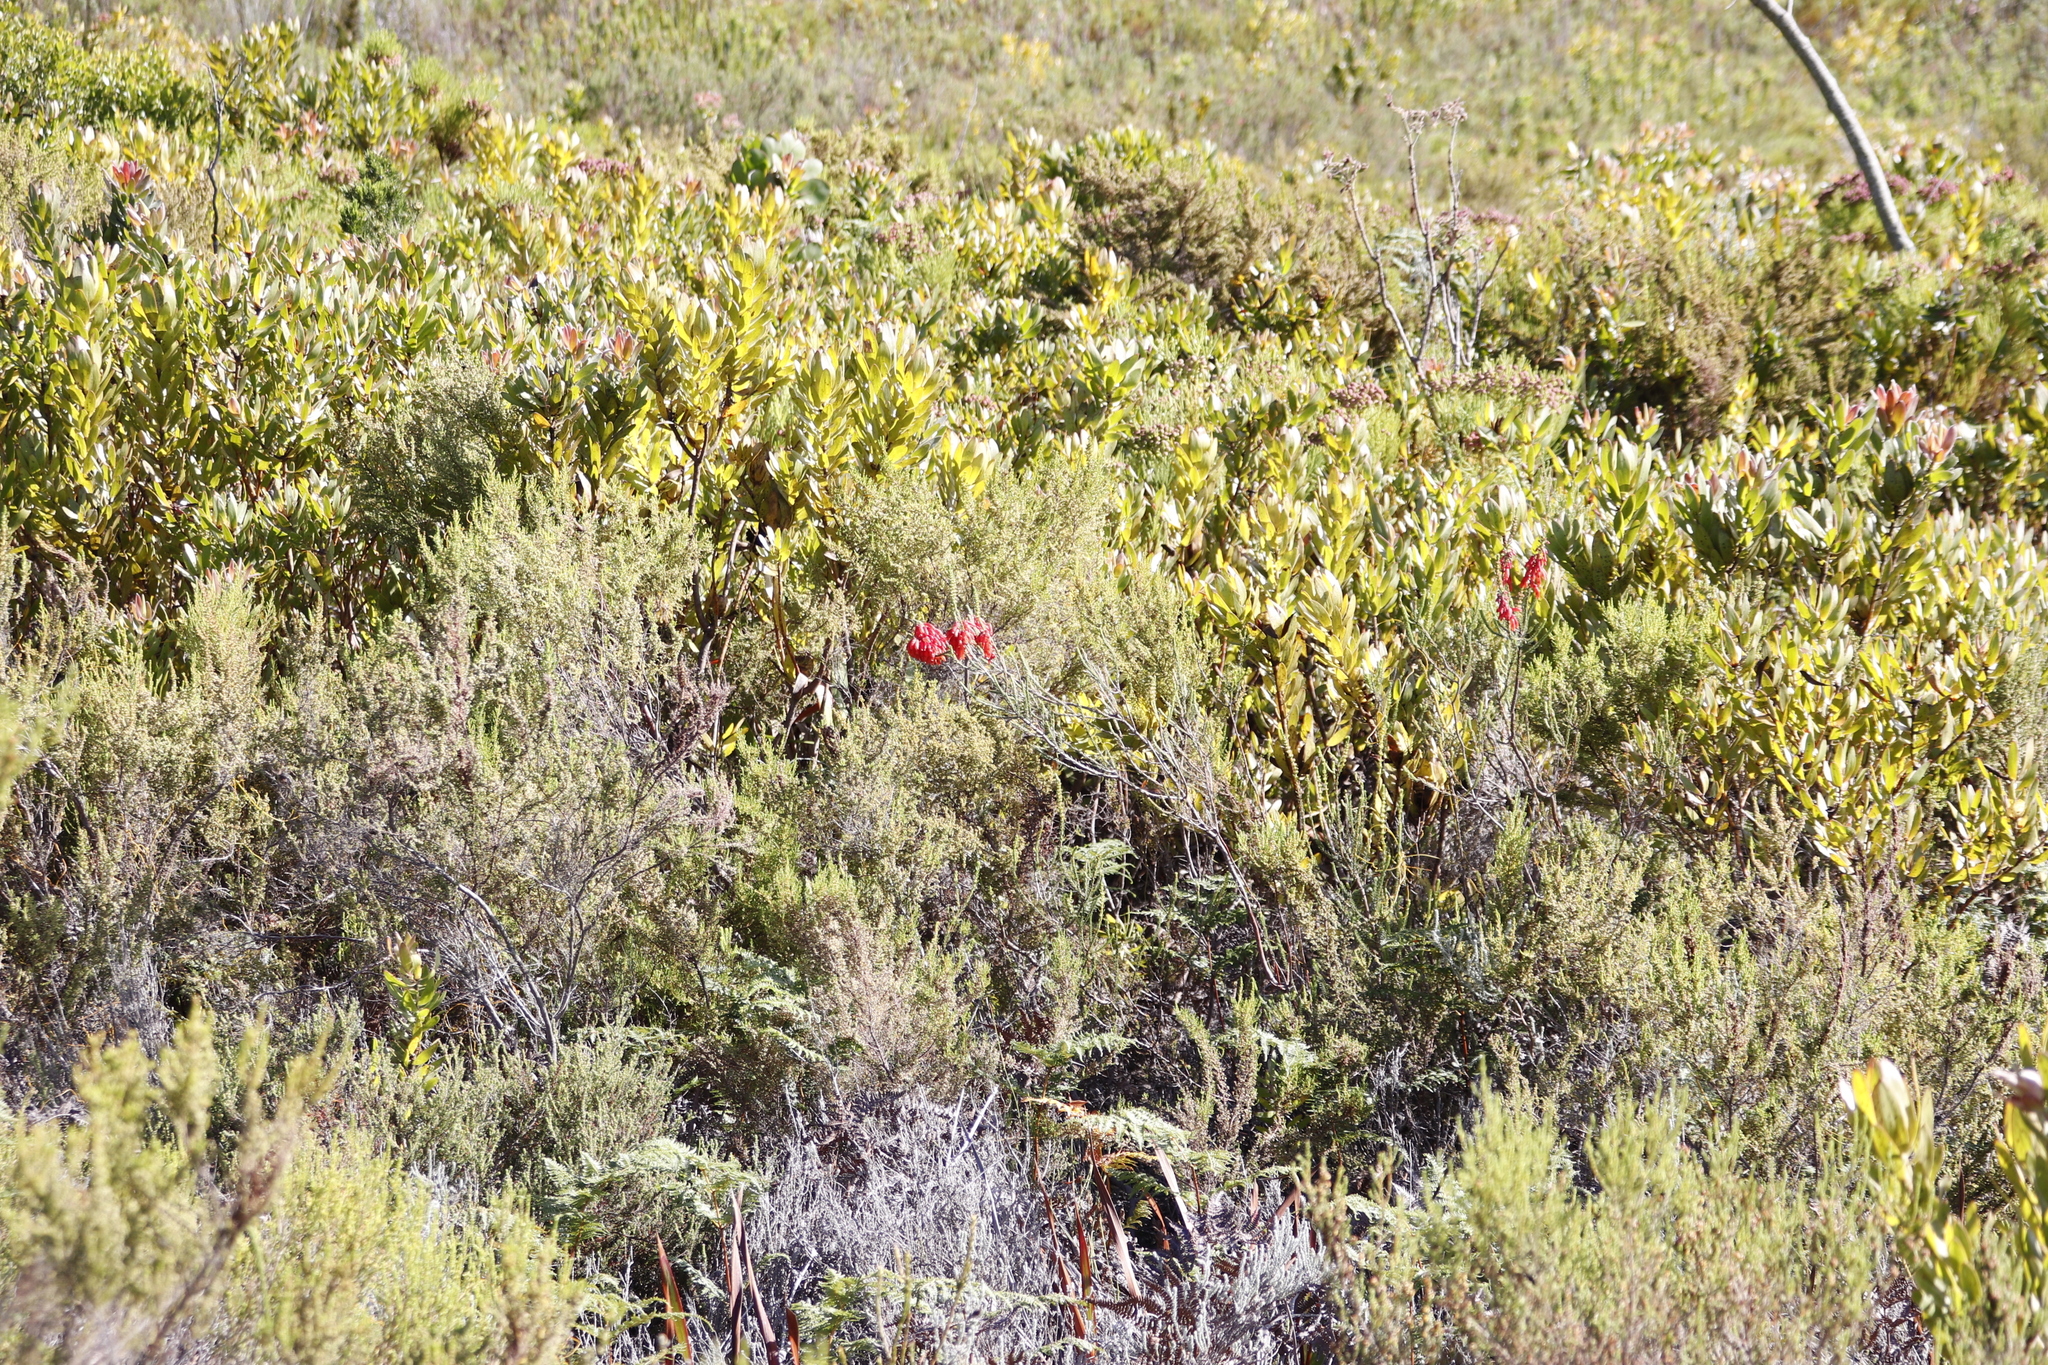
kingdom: Plantae
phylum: Tracheophyta
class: Magnoliopsida
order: Ericales
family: Ericaceae
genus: Erica
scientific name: Erica mammosa
